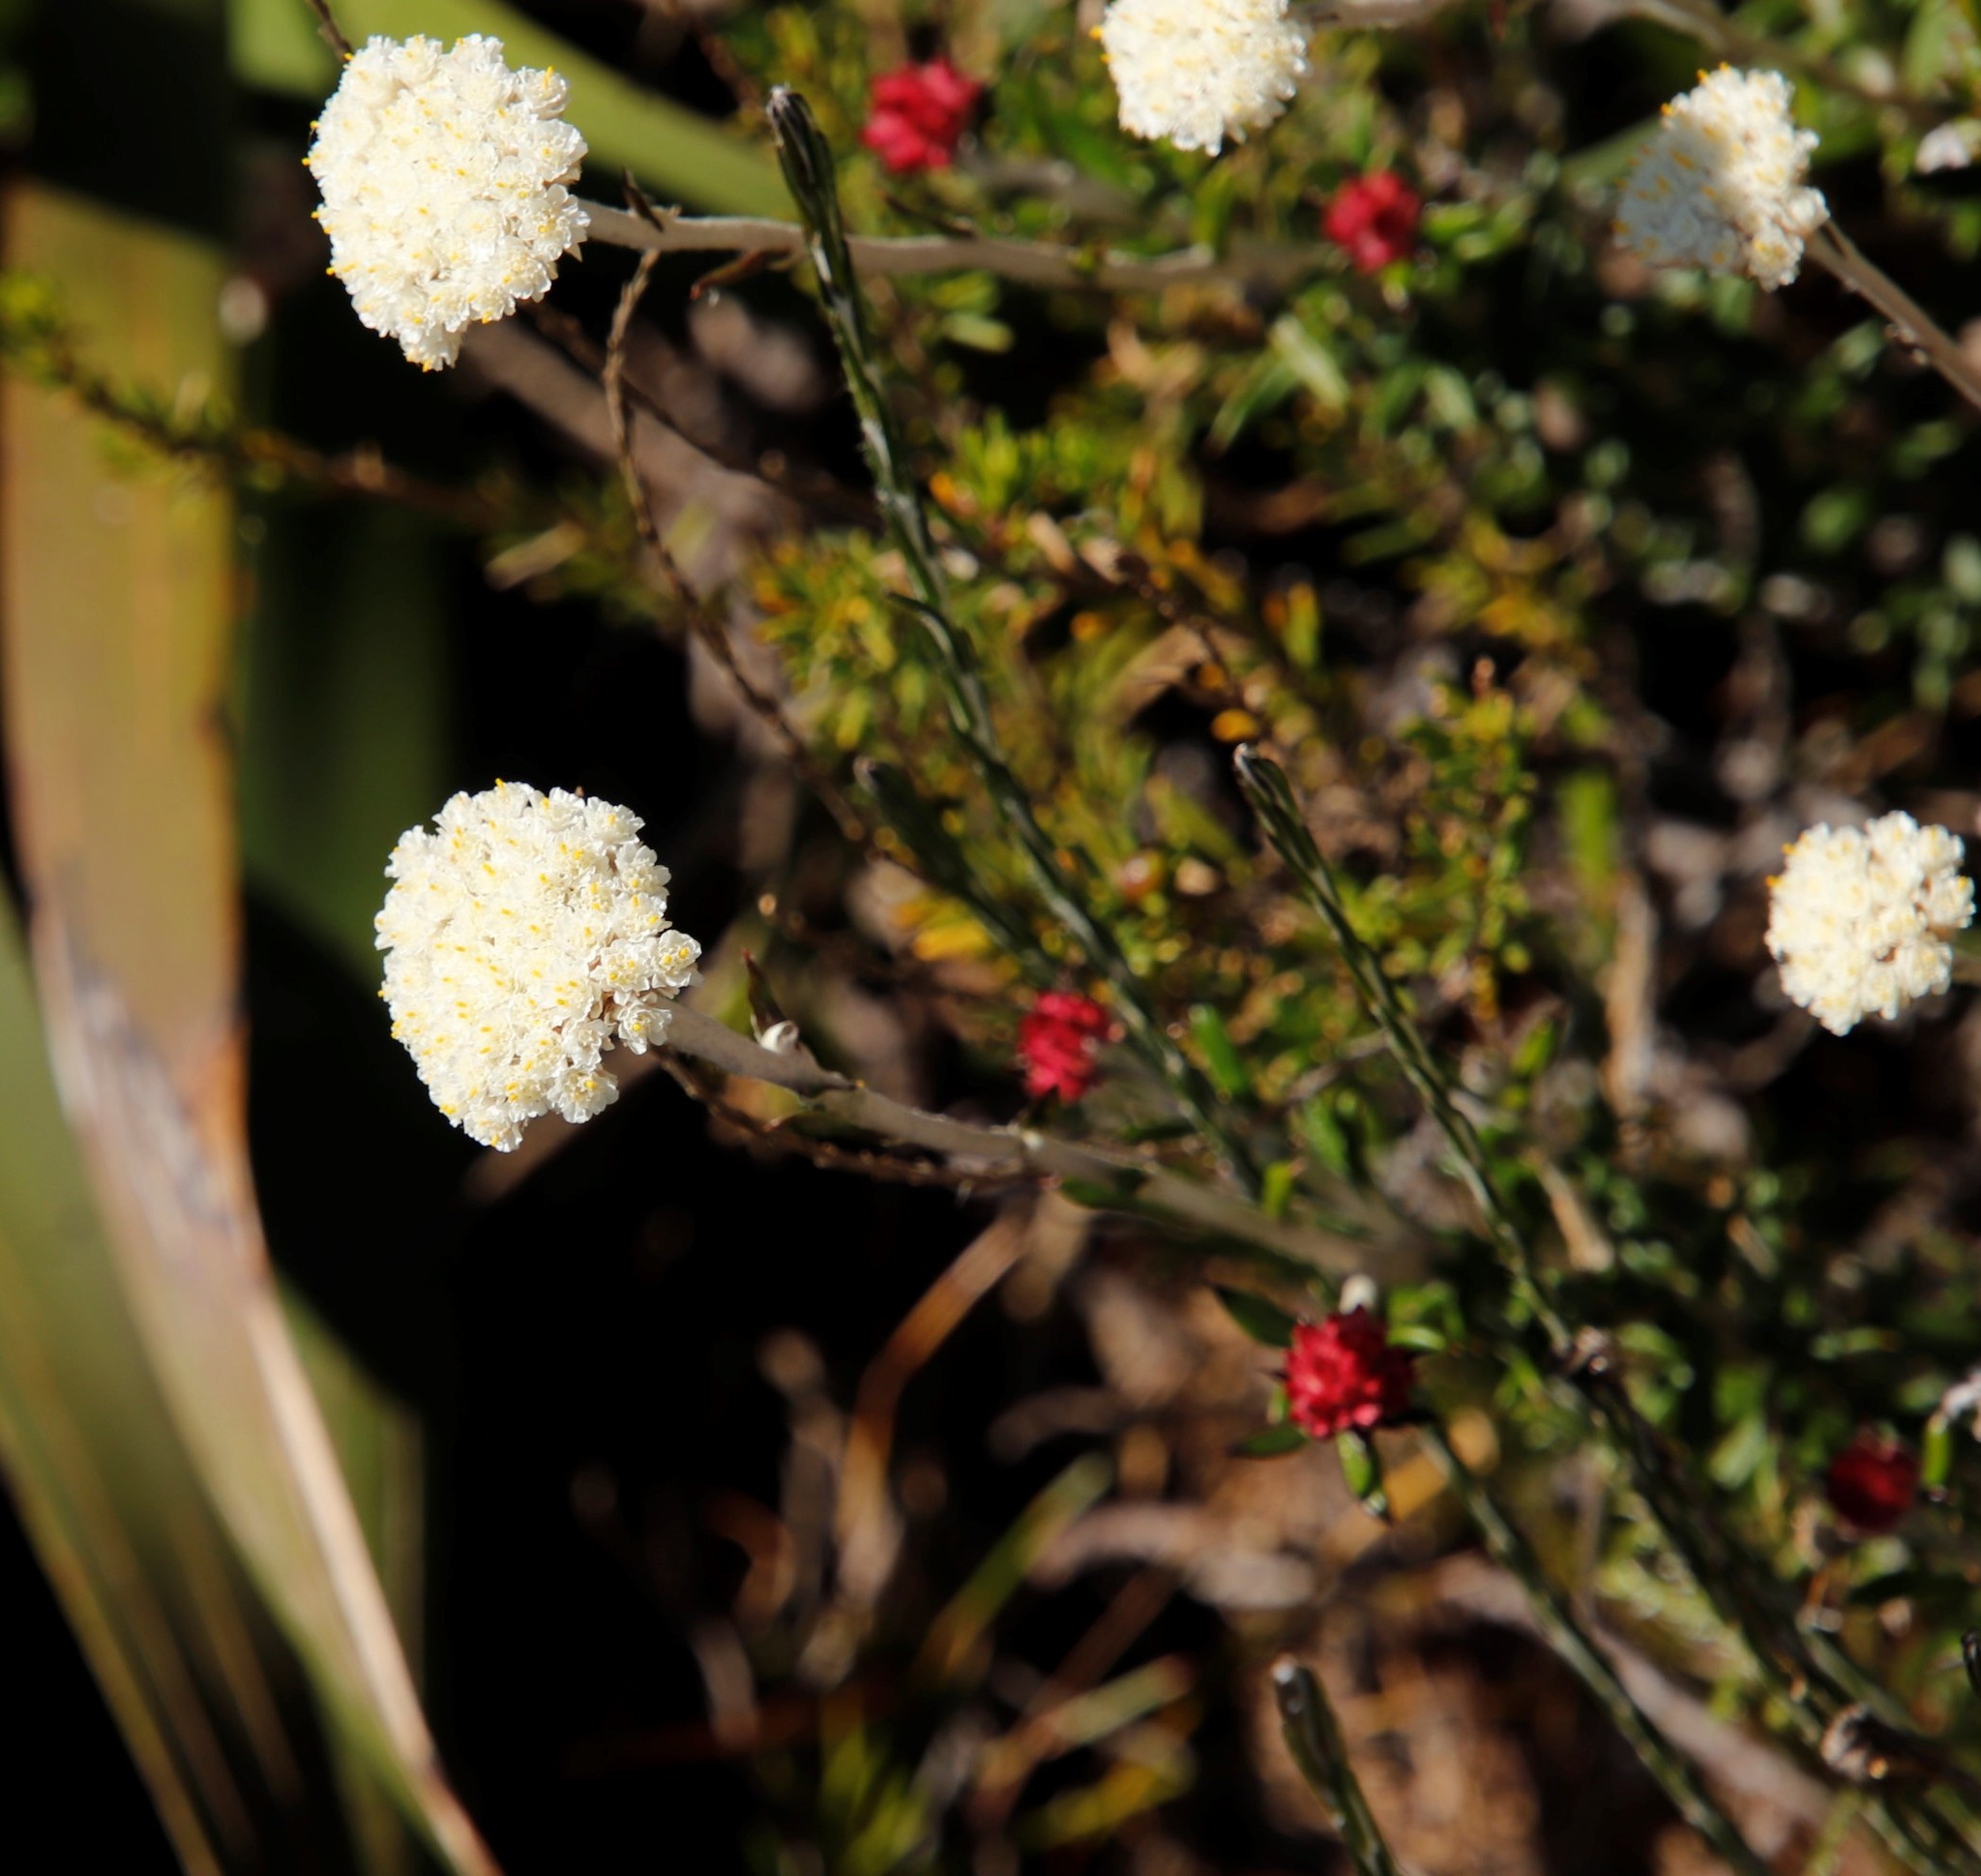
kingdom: Plantae
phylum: Tracheophyta
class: Magnoliopsida
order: Asterales
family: Asteraceae
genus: Anaxeton
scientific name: Anaxeton laeve
